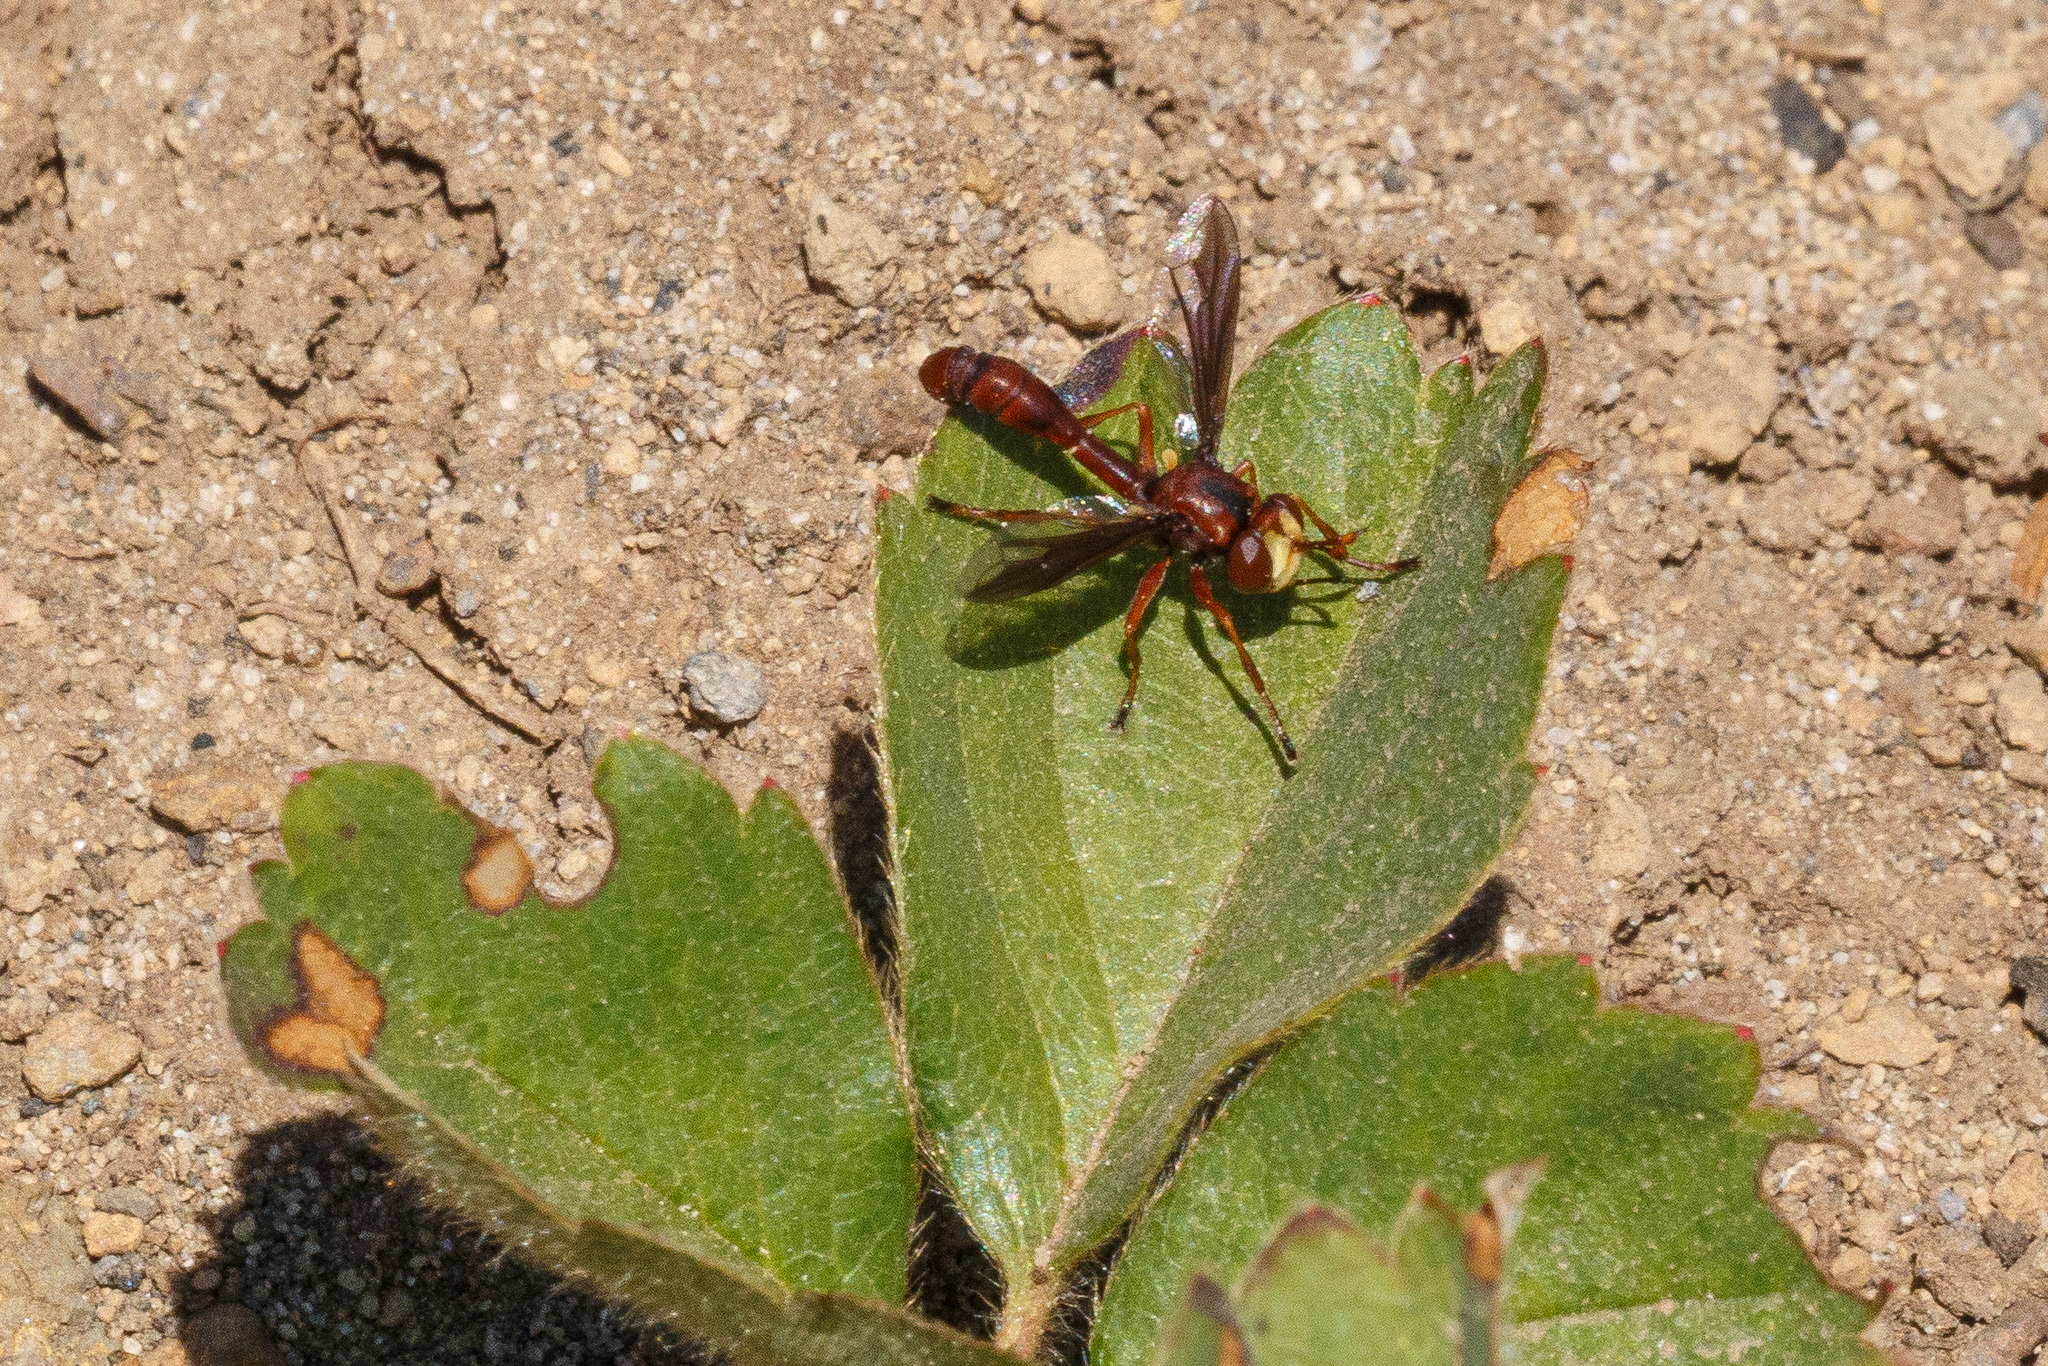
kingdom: Animalia
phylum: Arthropoda
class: Insecta
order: Diptera
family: Conopidae
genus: Physocephala
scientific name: Physocephala burgessi
